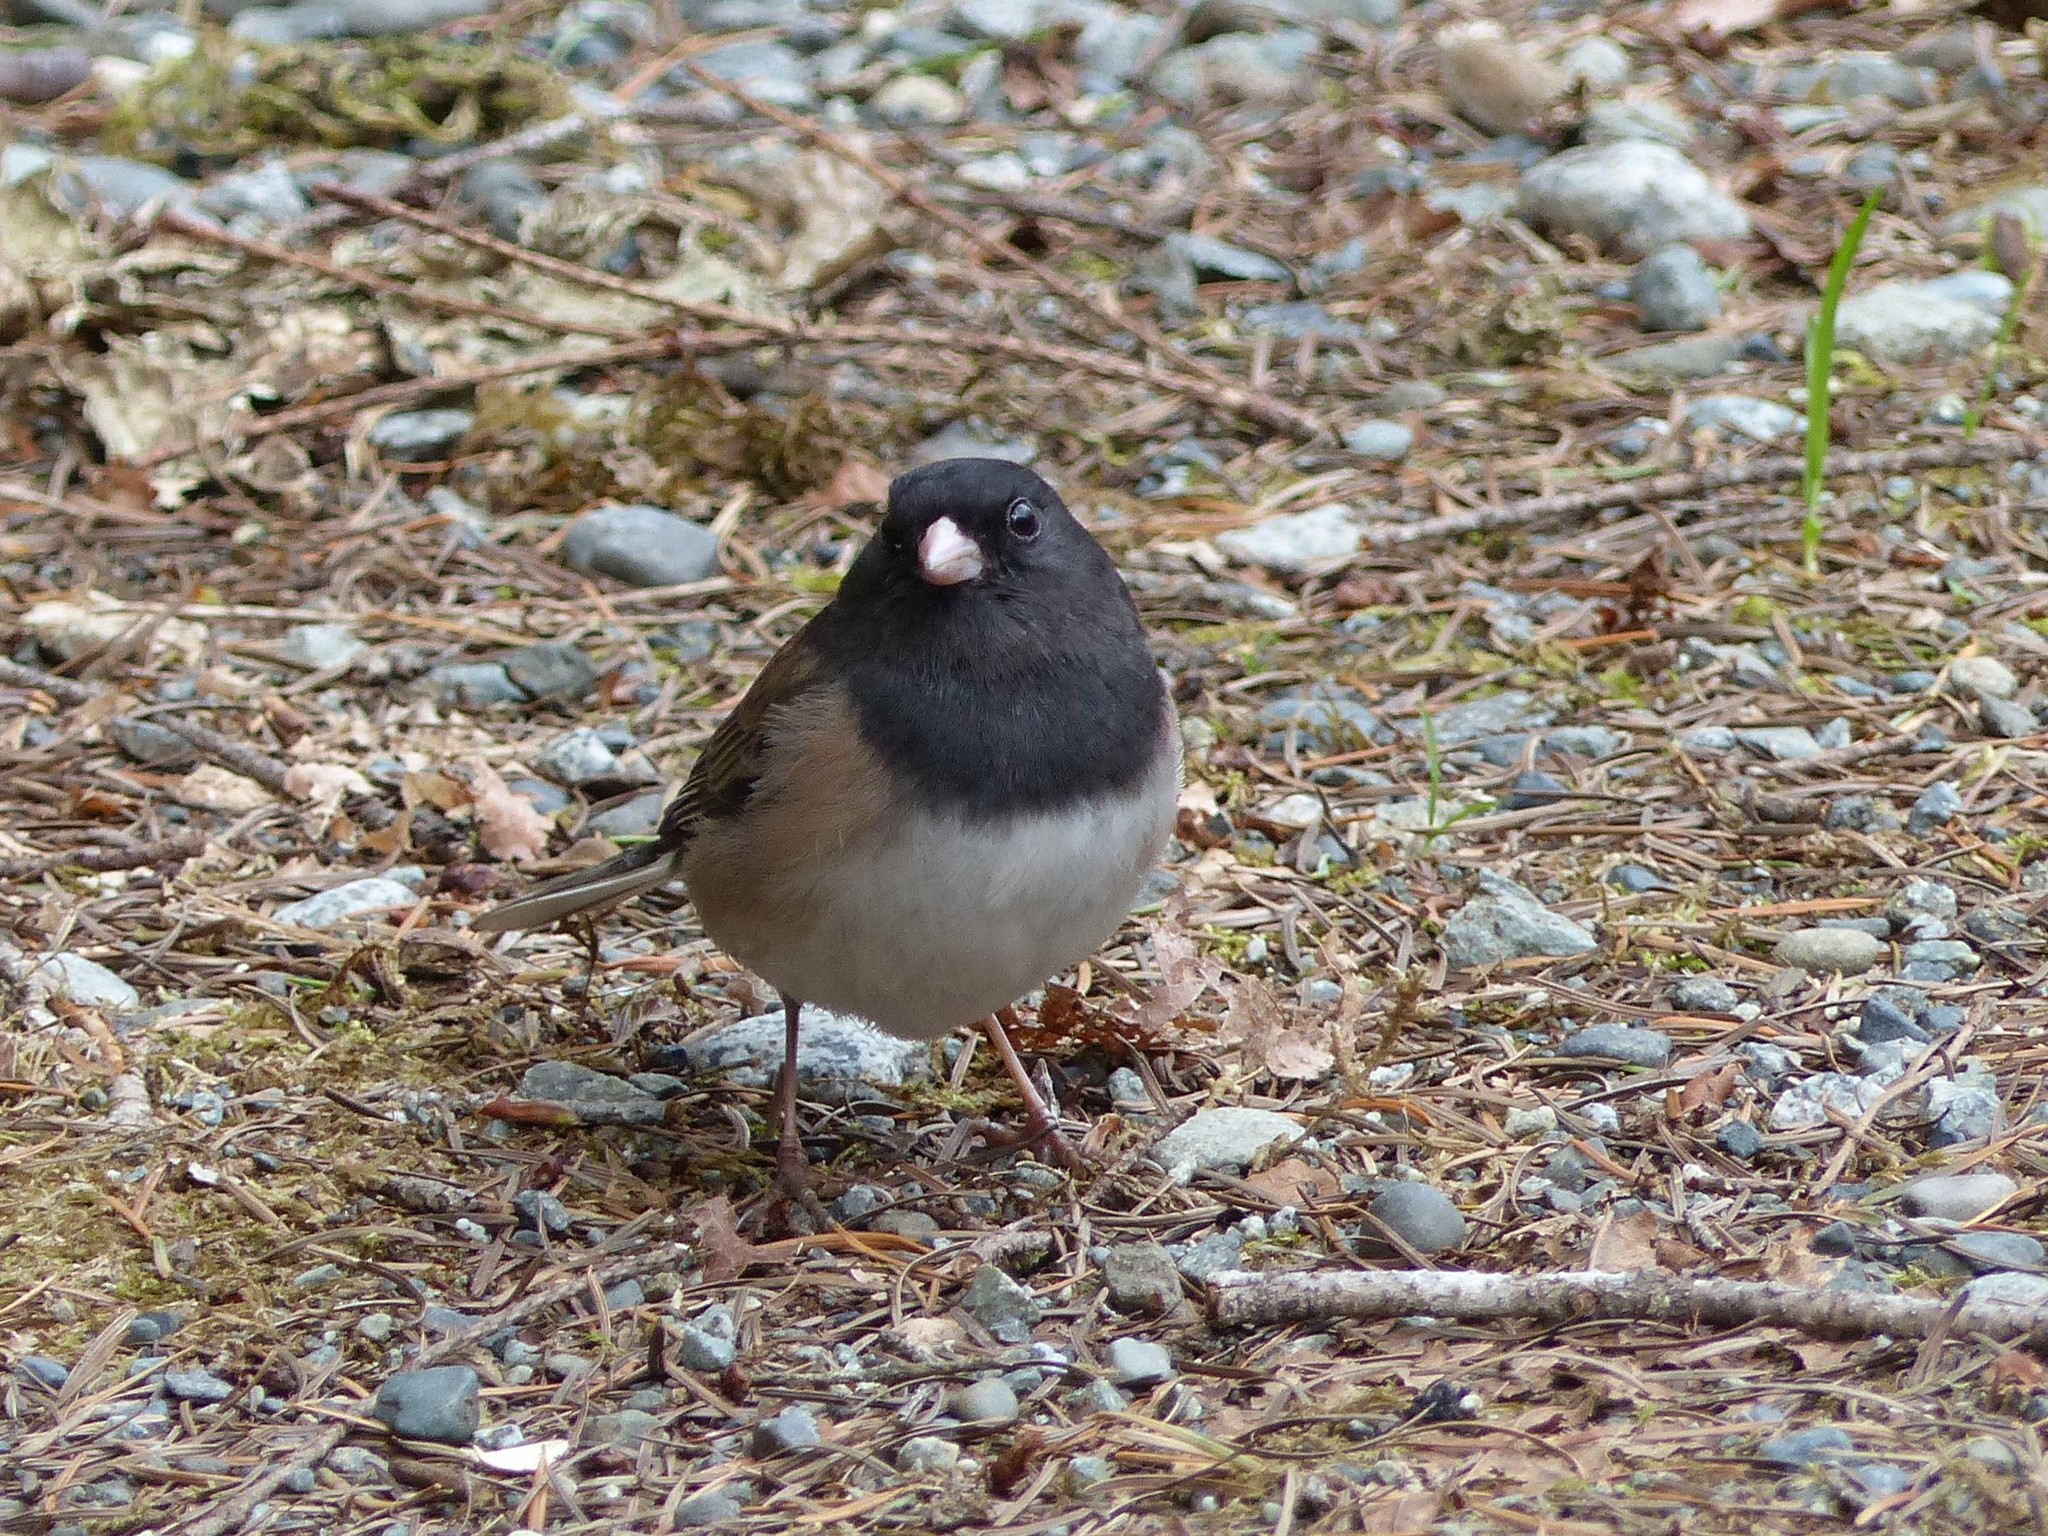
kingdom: Animalia
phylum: Chordata
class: Aves
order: Passeriformes
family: Passerellidae
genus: Junco
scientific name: Junco hyemalis
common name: Dark-eyed junco
